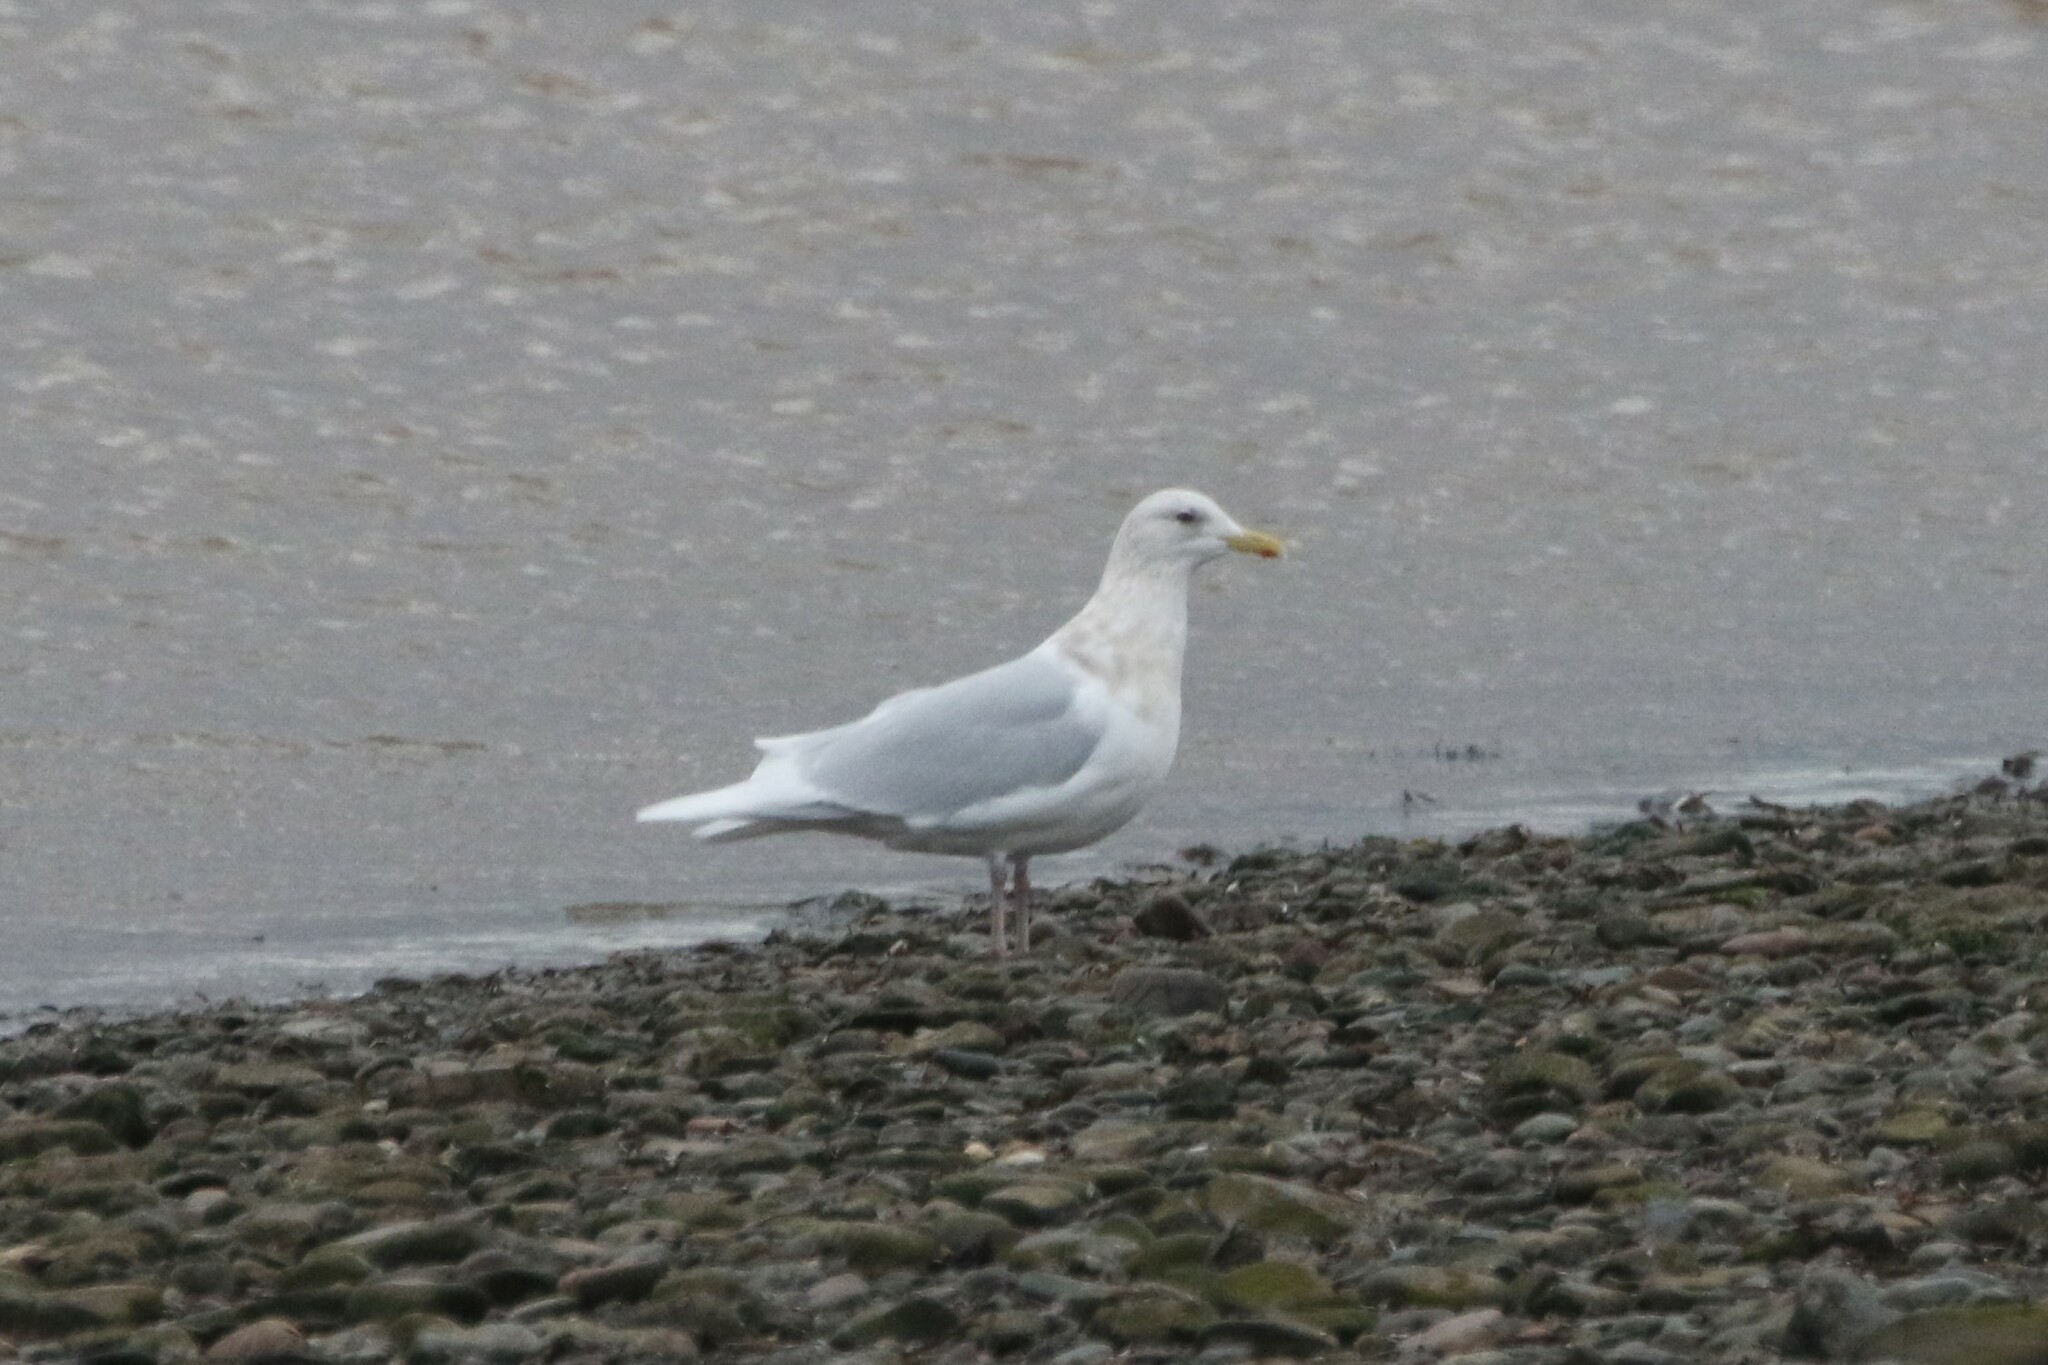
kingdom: Animalia
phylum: Chordata
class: Aves
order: Charadriiformes
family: Laridae
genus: Larus
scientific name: Larus glaucoides
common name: Iceland gull
